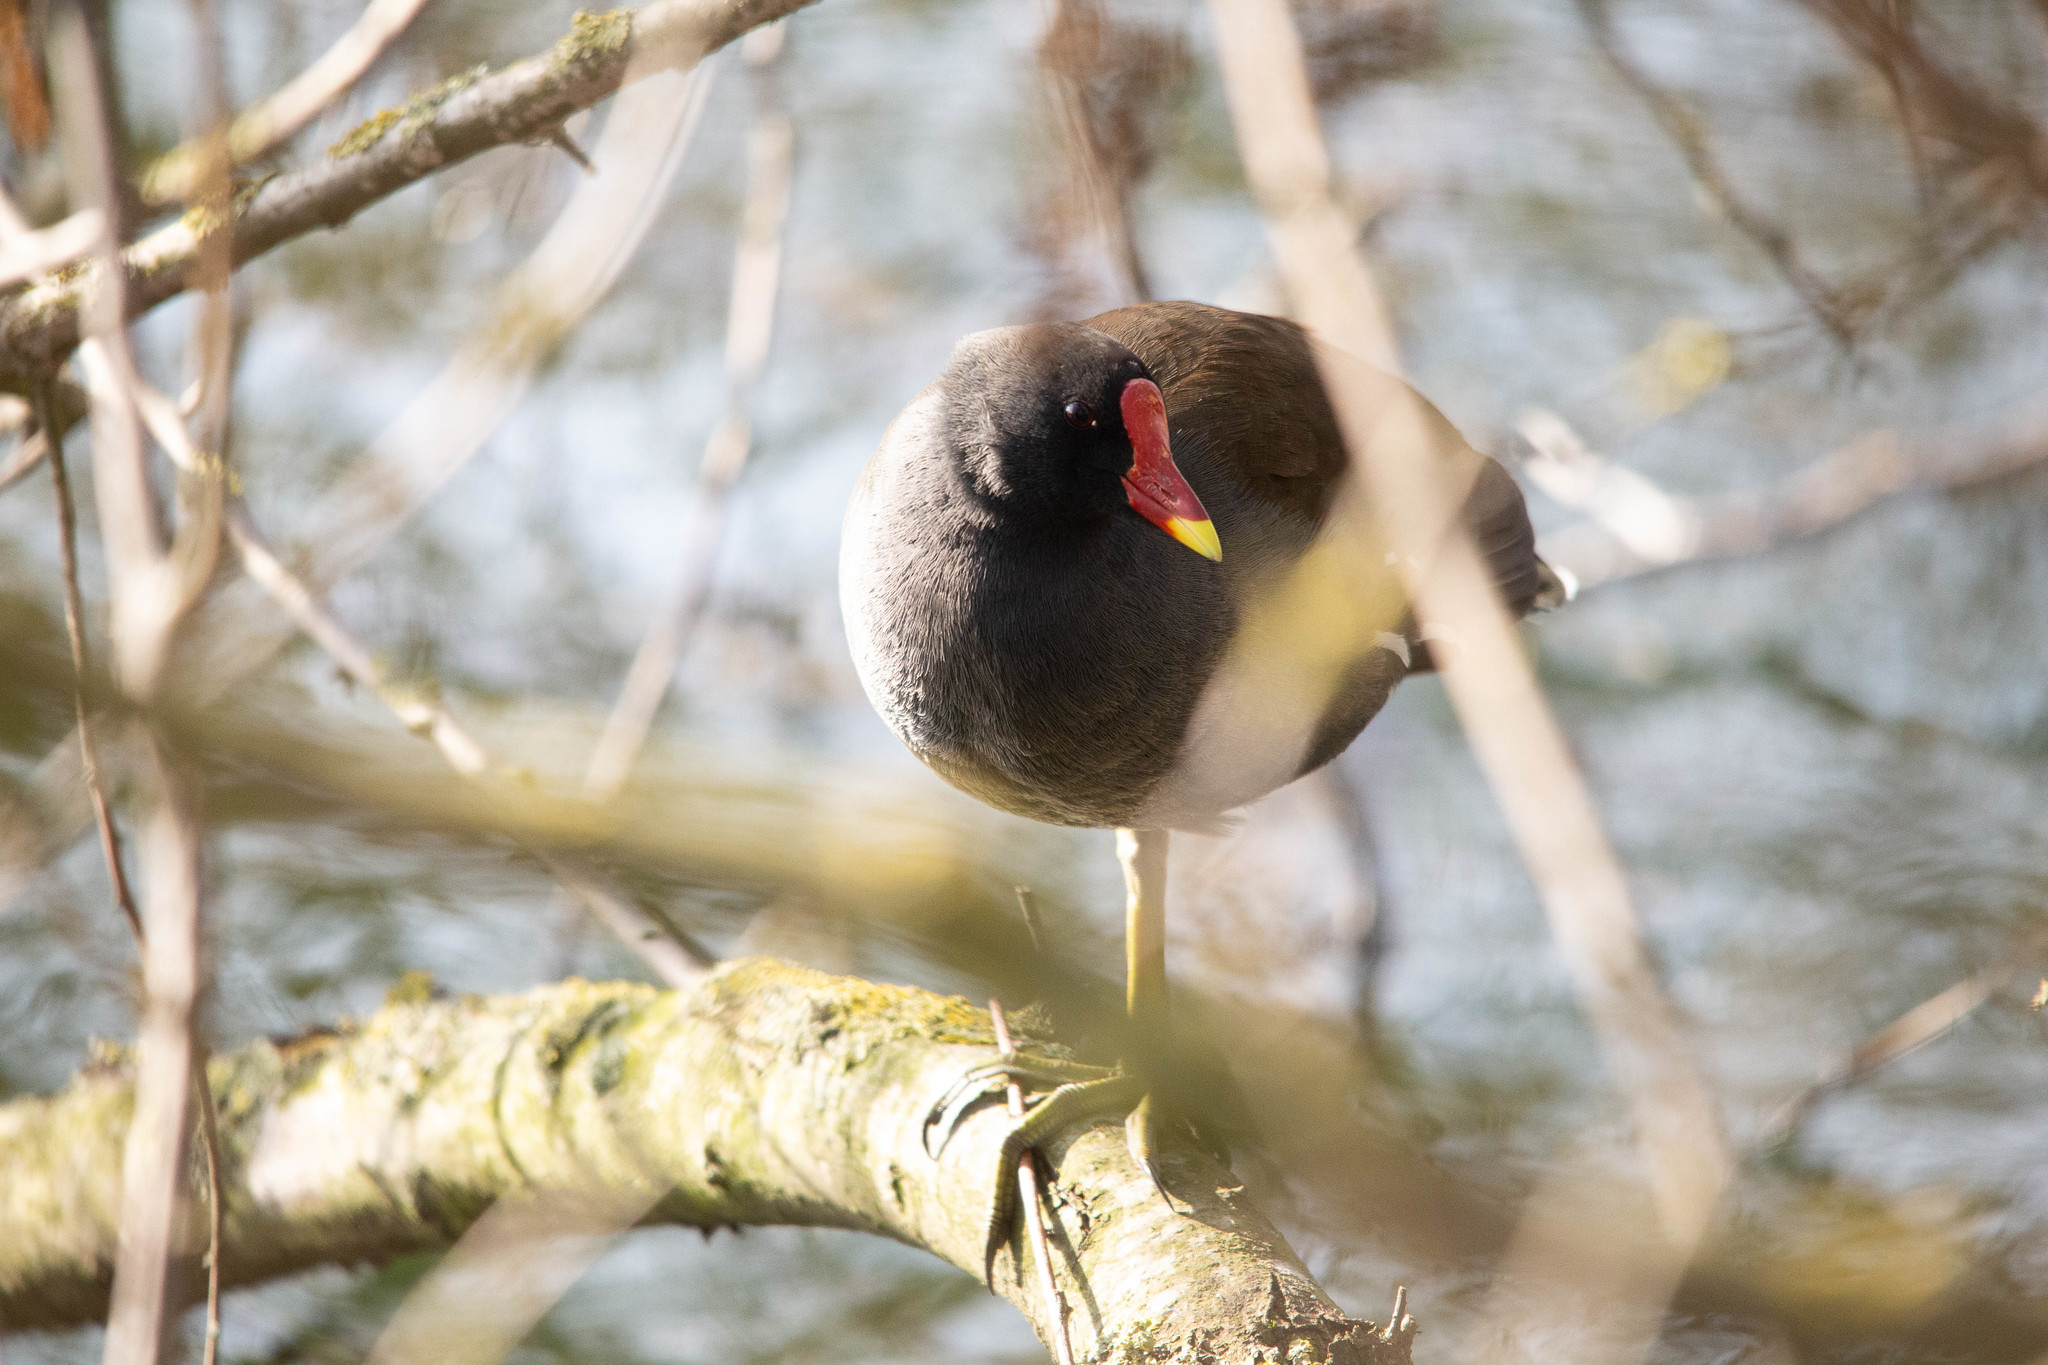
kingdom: Animalia
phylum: Chordata
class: Aves
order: Gruiformes
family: Rallidae
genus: Gallinula
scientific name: Gallinula chloropus
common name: Common moorhen
